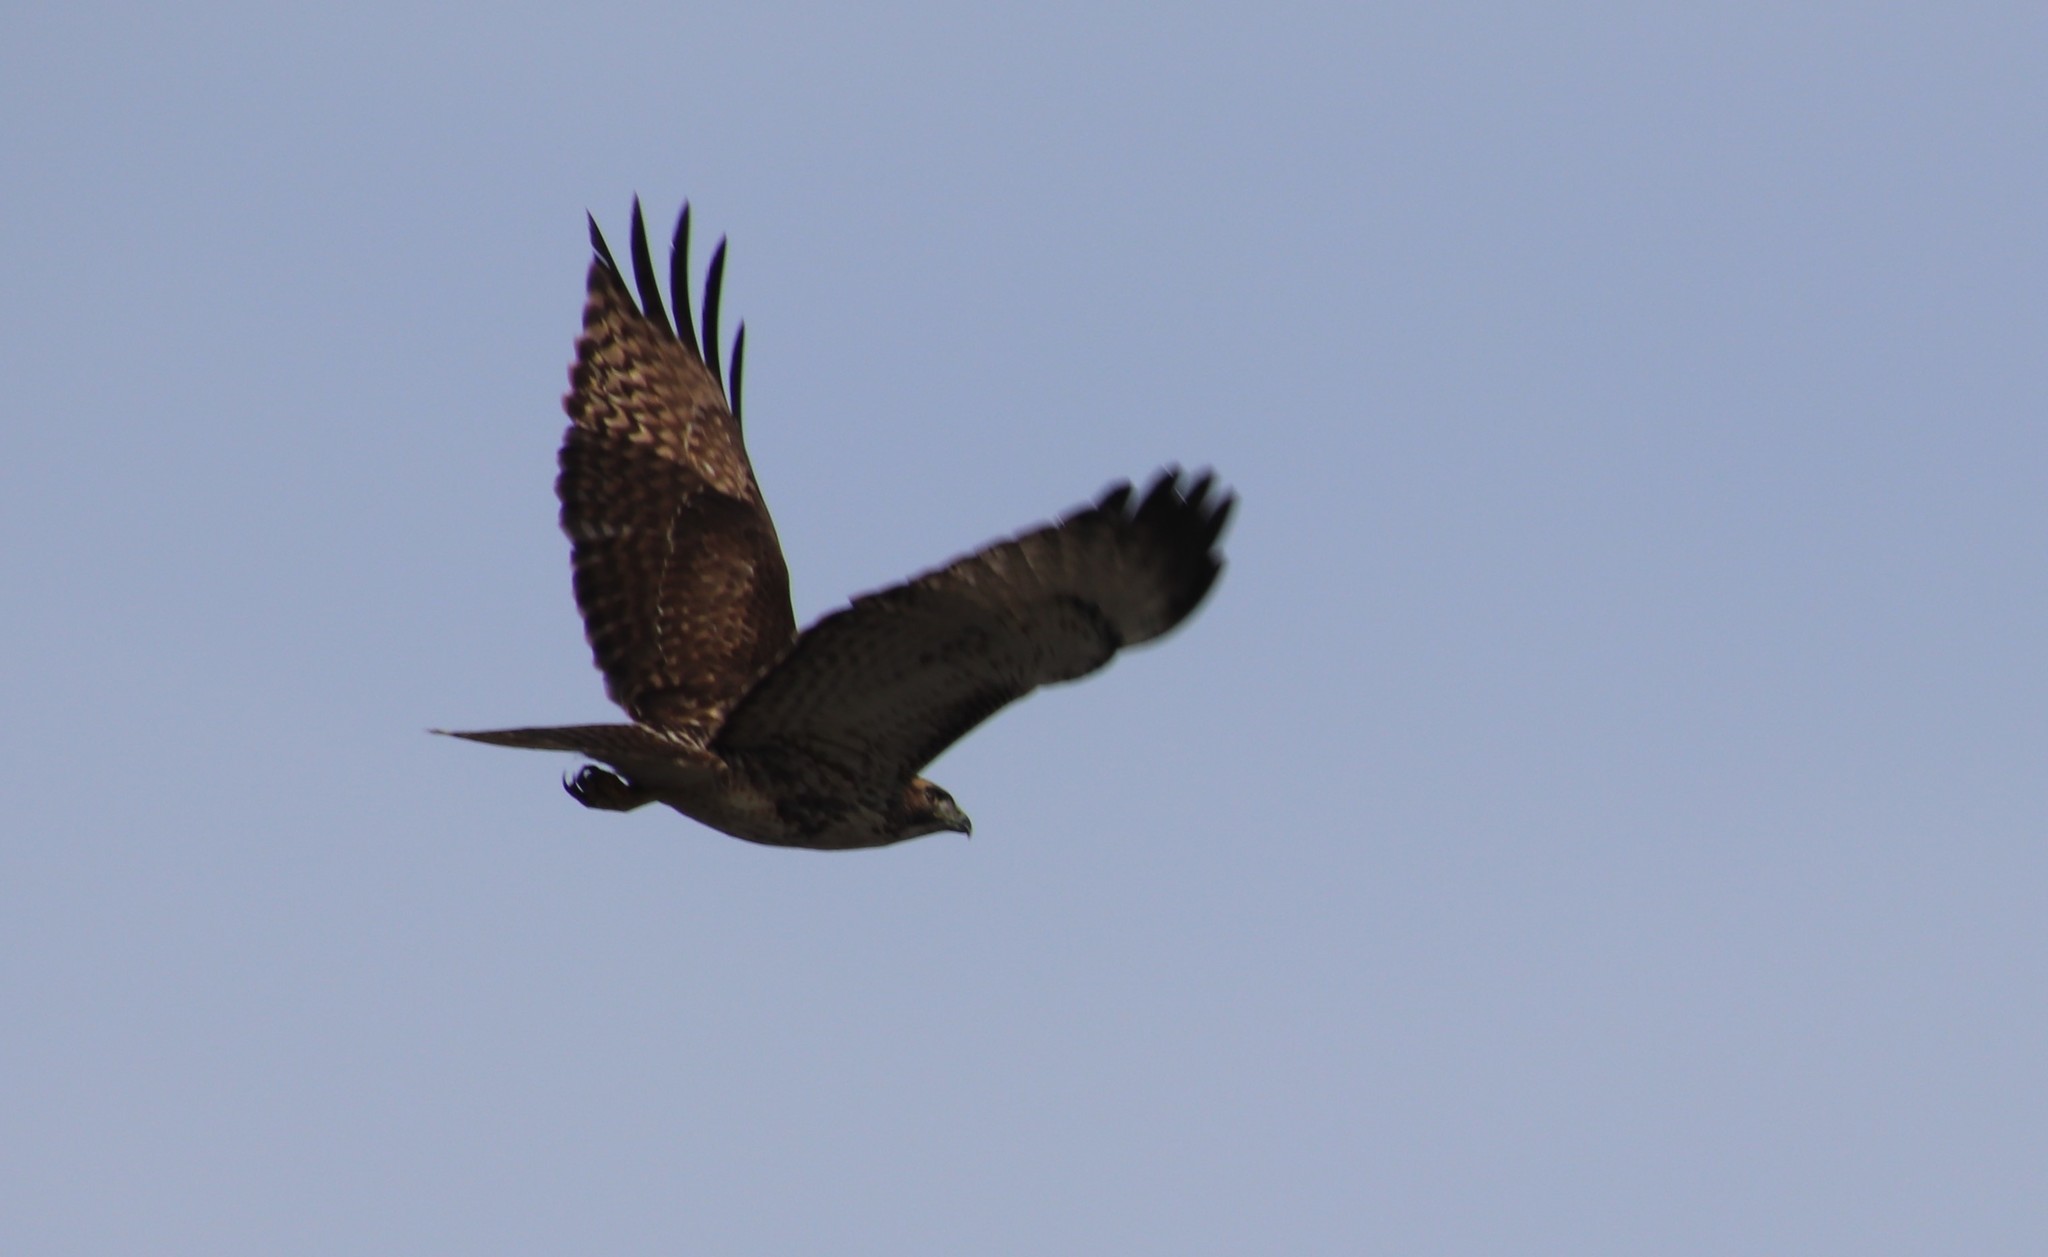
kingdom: Animalia
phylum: Chordata
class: Aves
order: Accipitriformes
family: Accipitridae
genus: Buteo
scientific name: Buteo jamaicensis
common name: Red-tailed hawk
